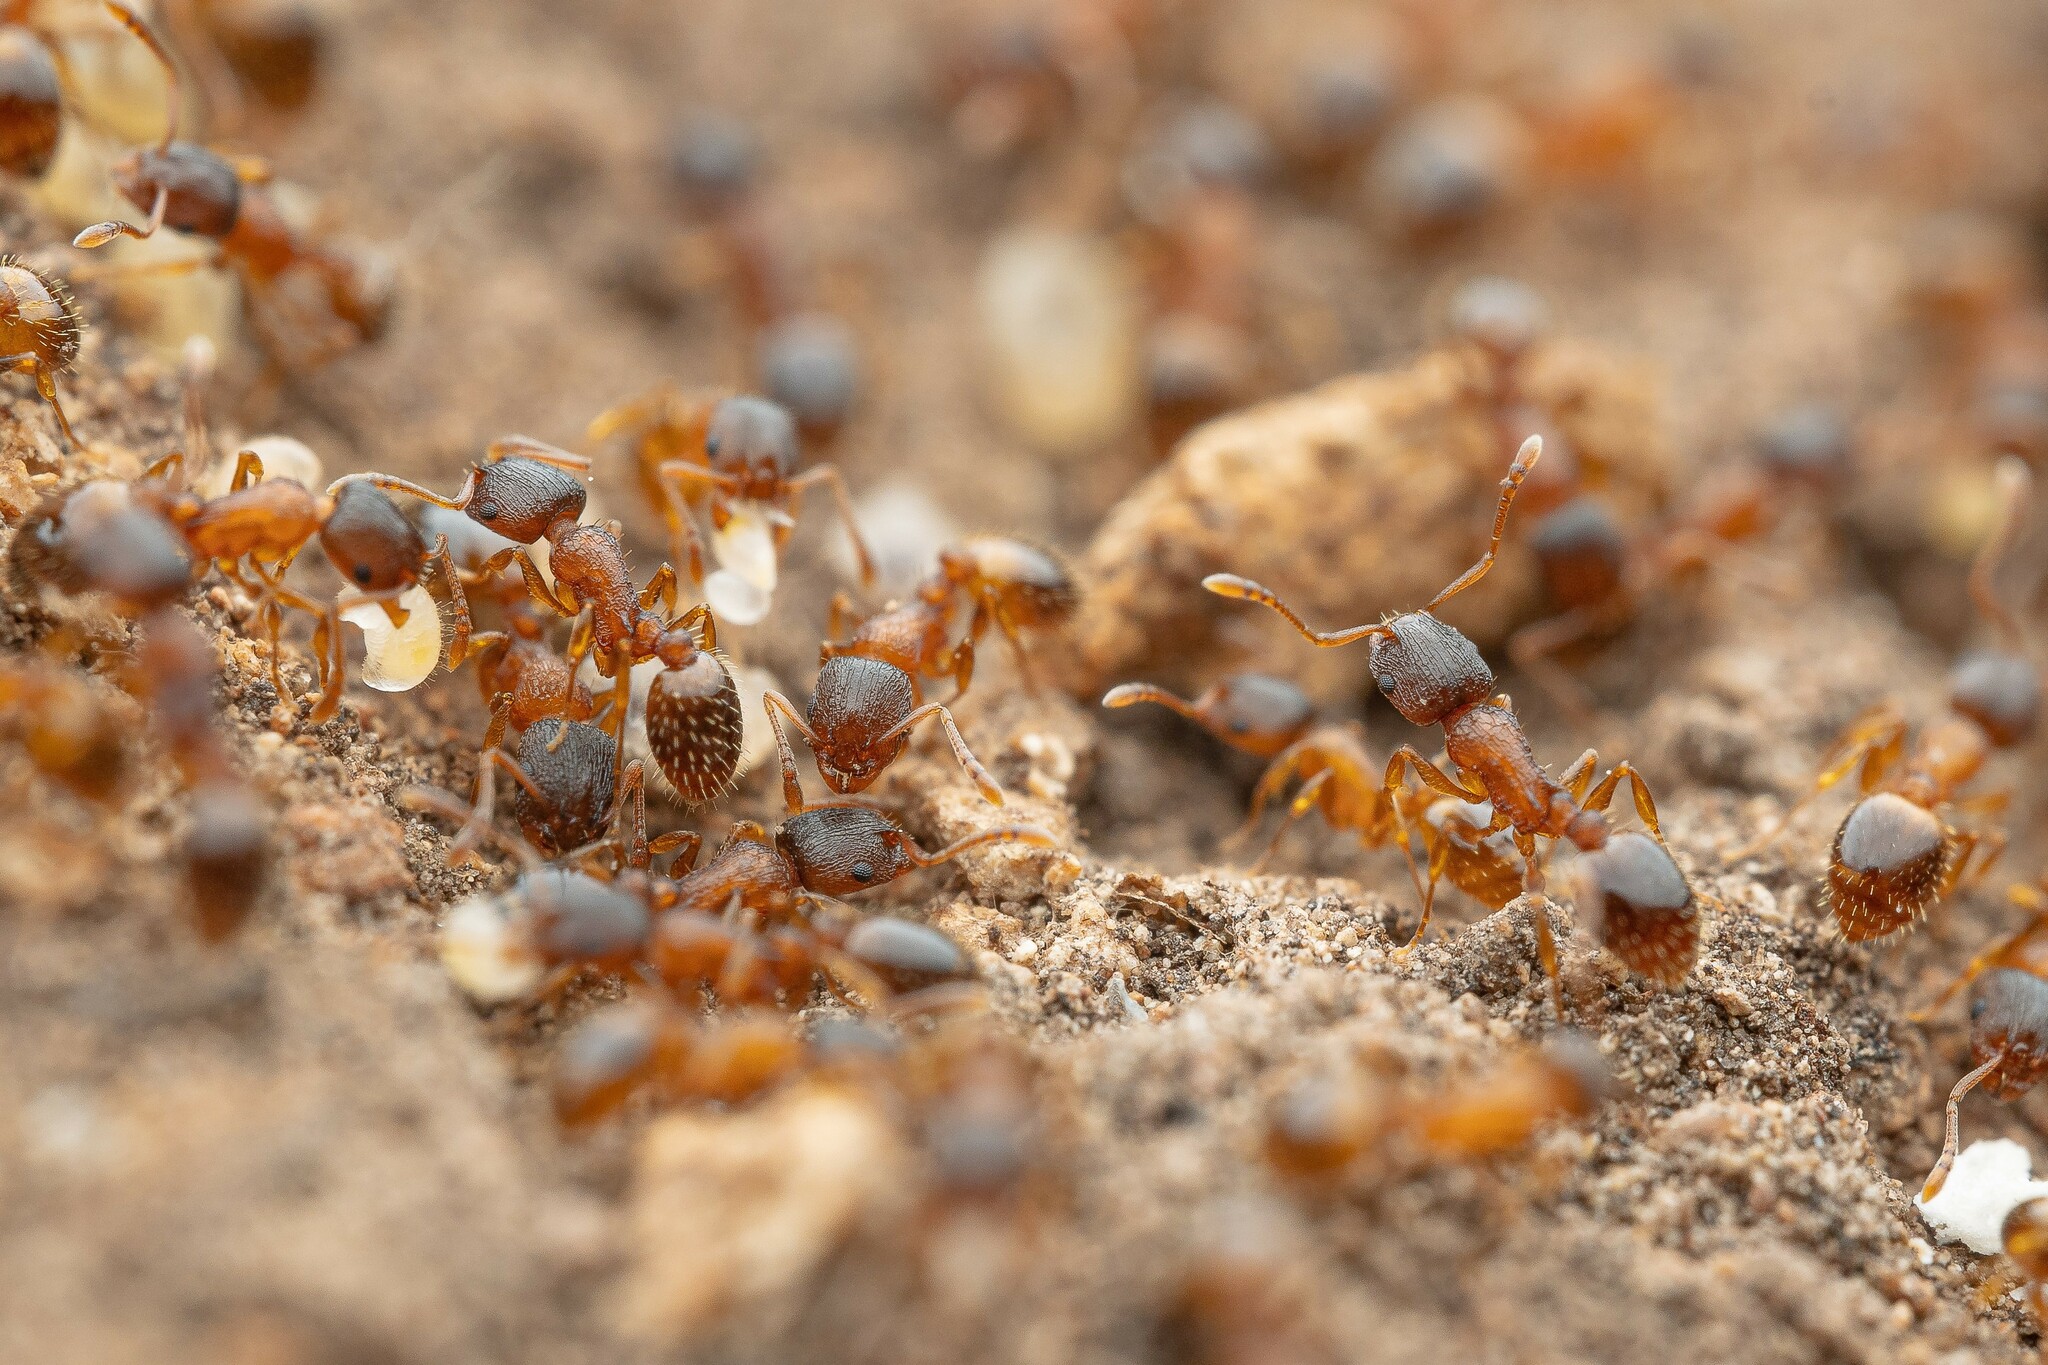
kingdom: Animalia
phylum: Arthropoda
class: Insecta
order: Hymenoptera
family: Formicidae
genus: Leptothorax
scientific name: Leptothorax rugatulus
